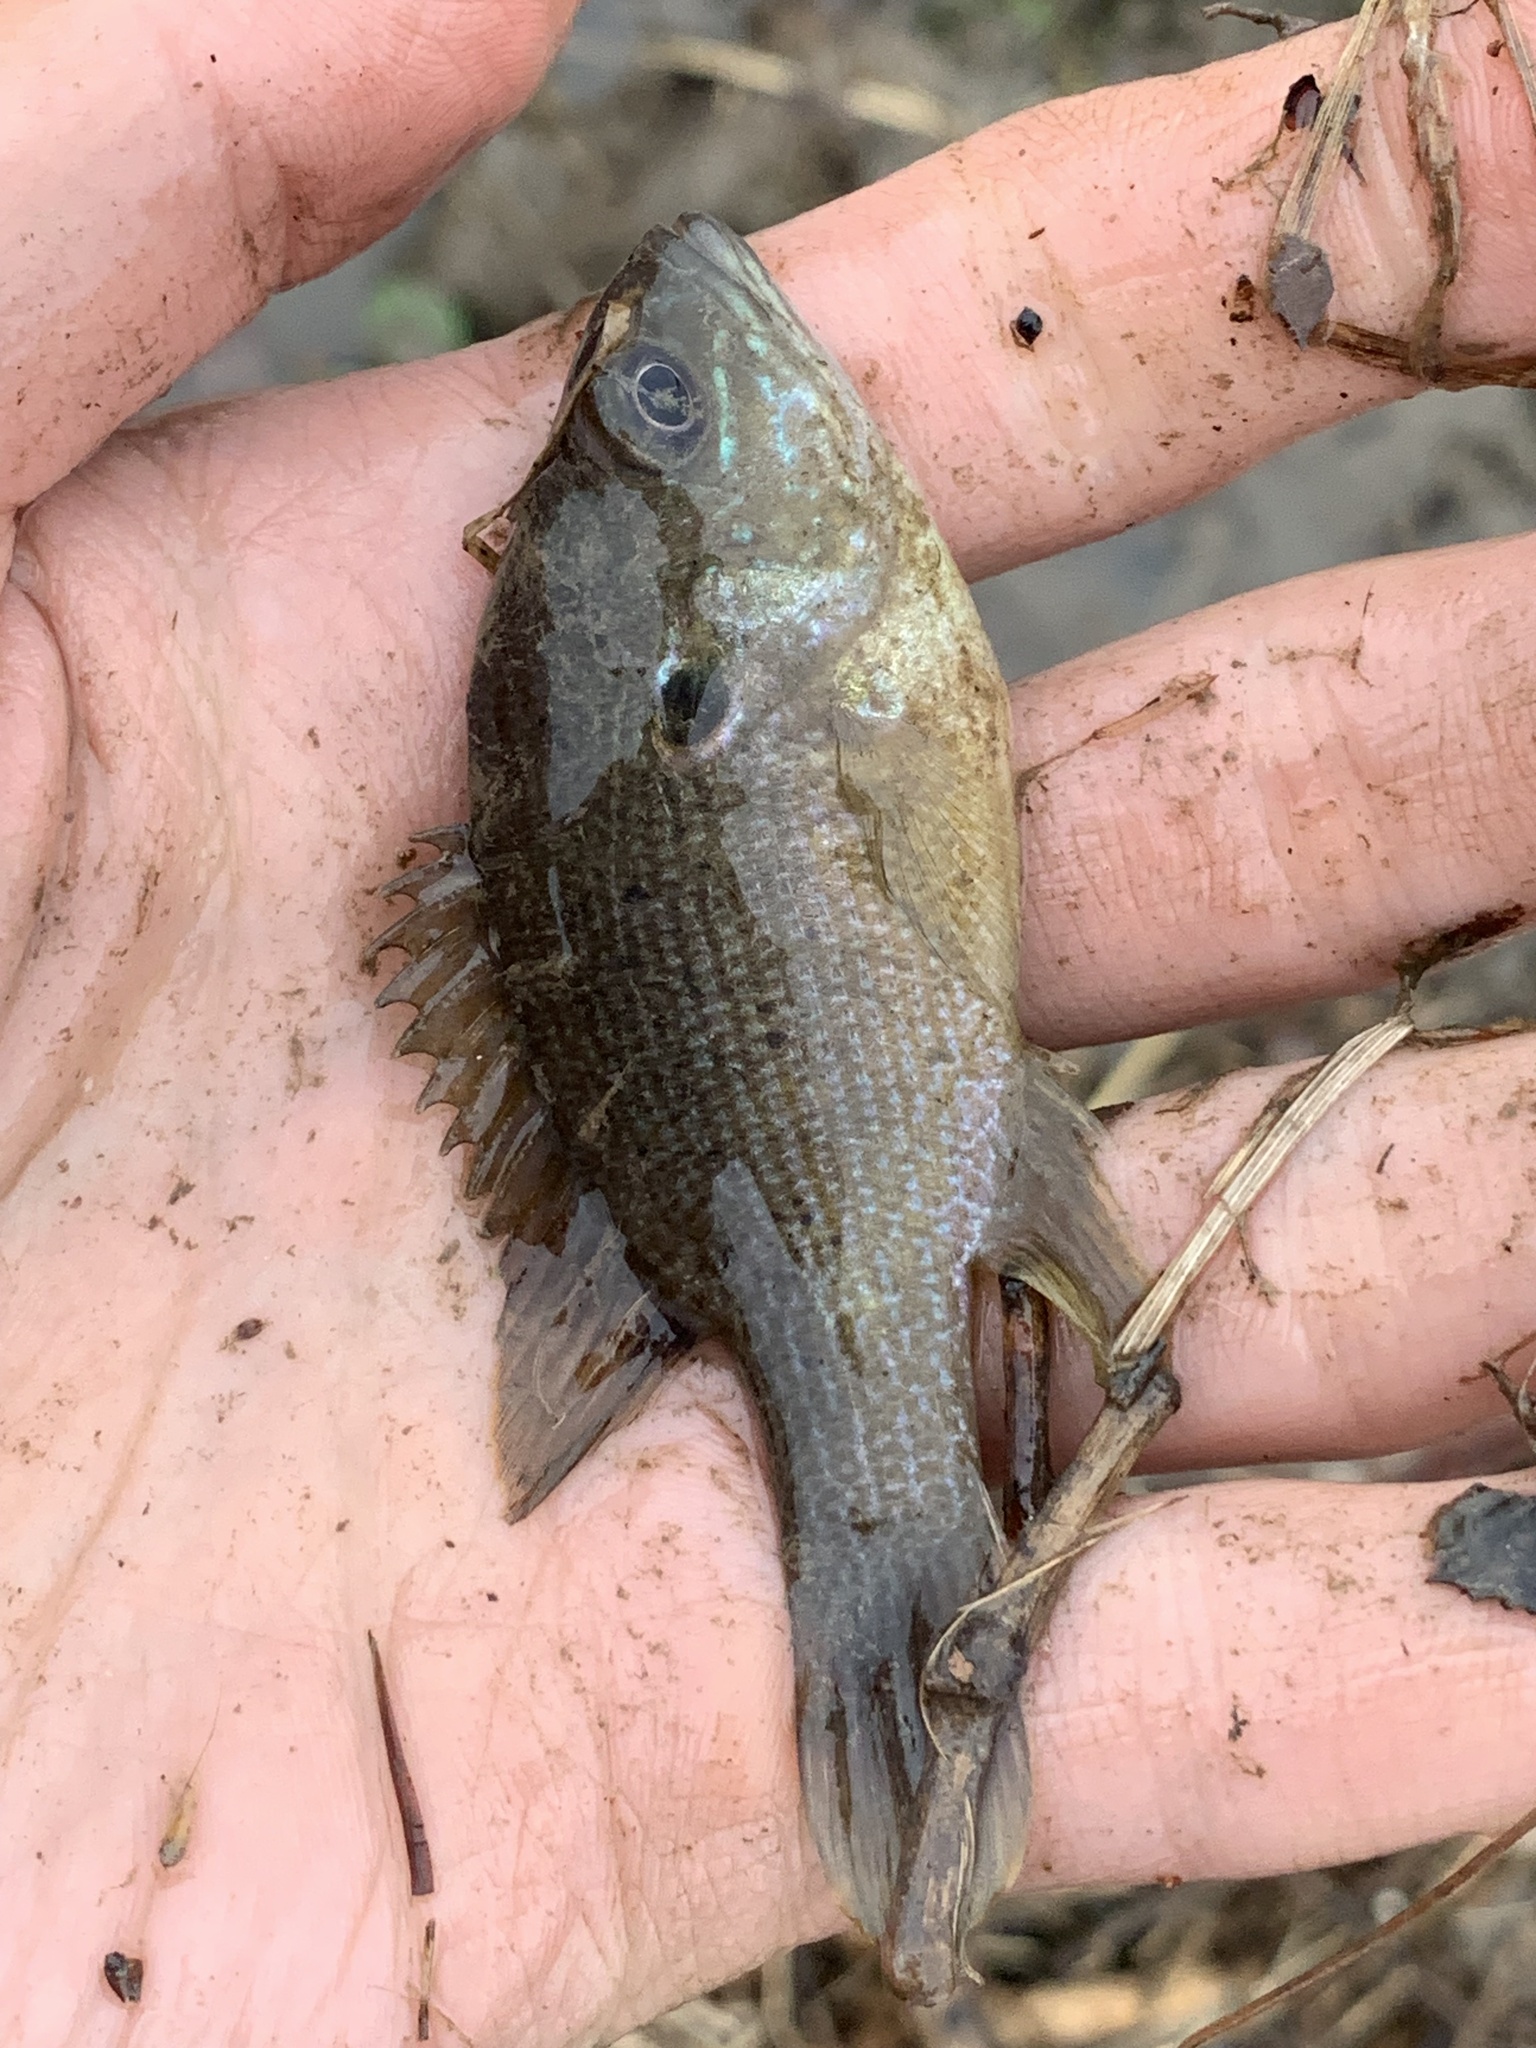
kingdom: Animalia
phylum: Chordata
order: Perciformes
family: Centrarchidae
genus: Lepomis
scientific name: Lepomis cyanellus
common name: Green sunfish
